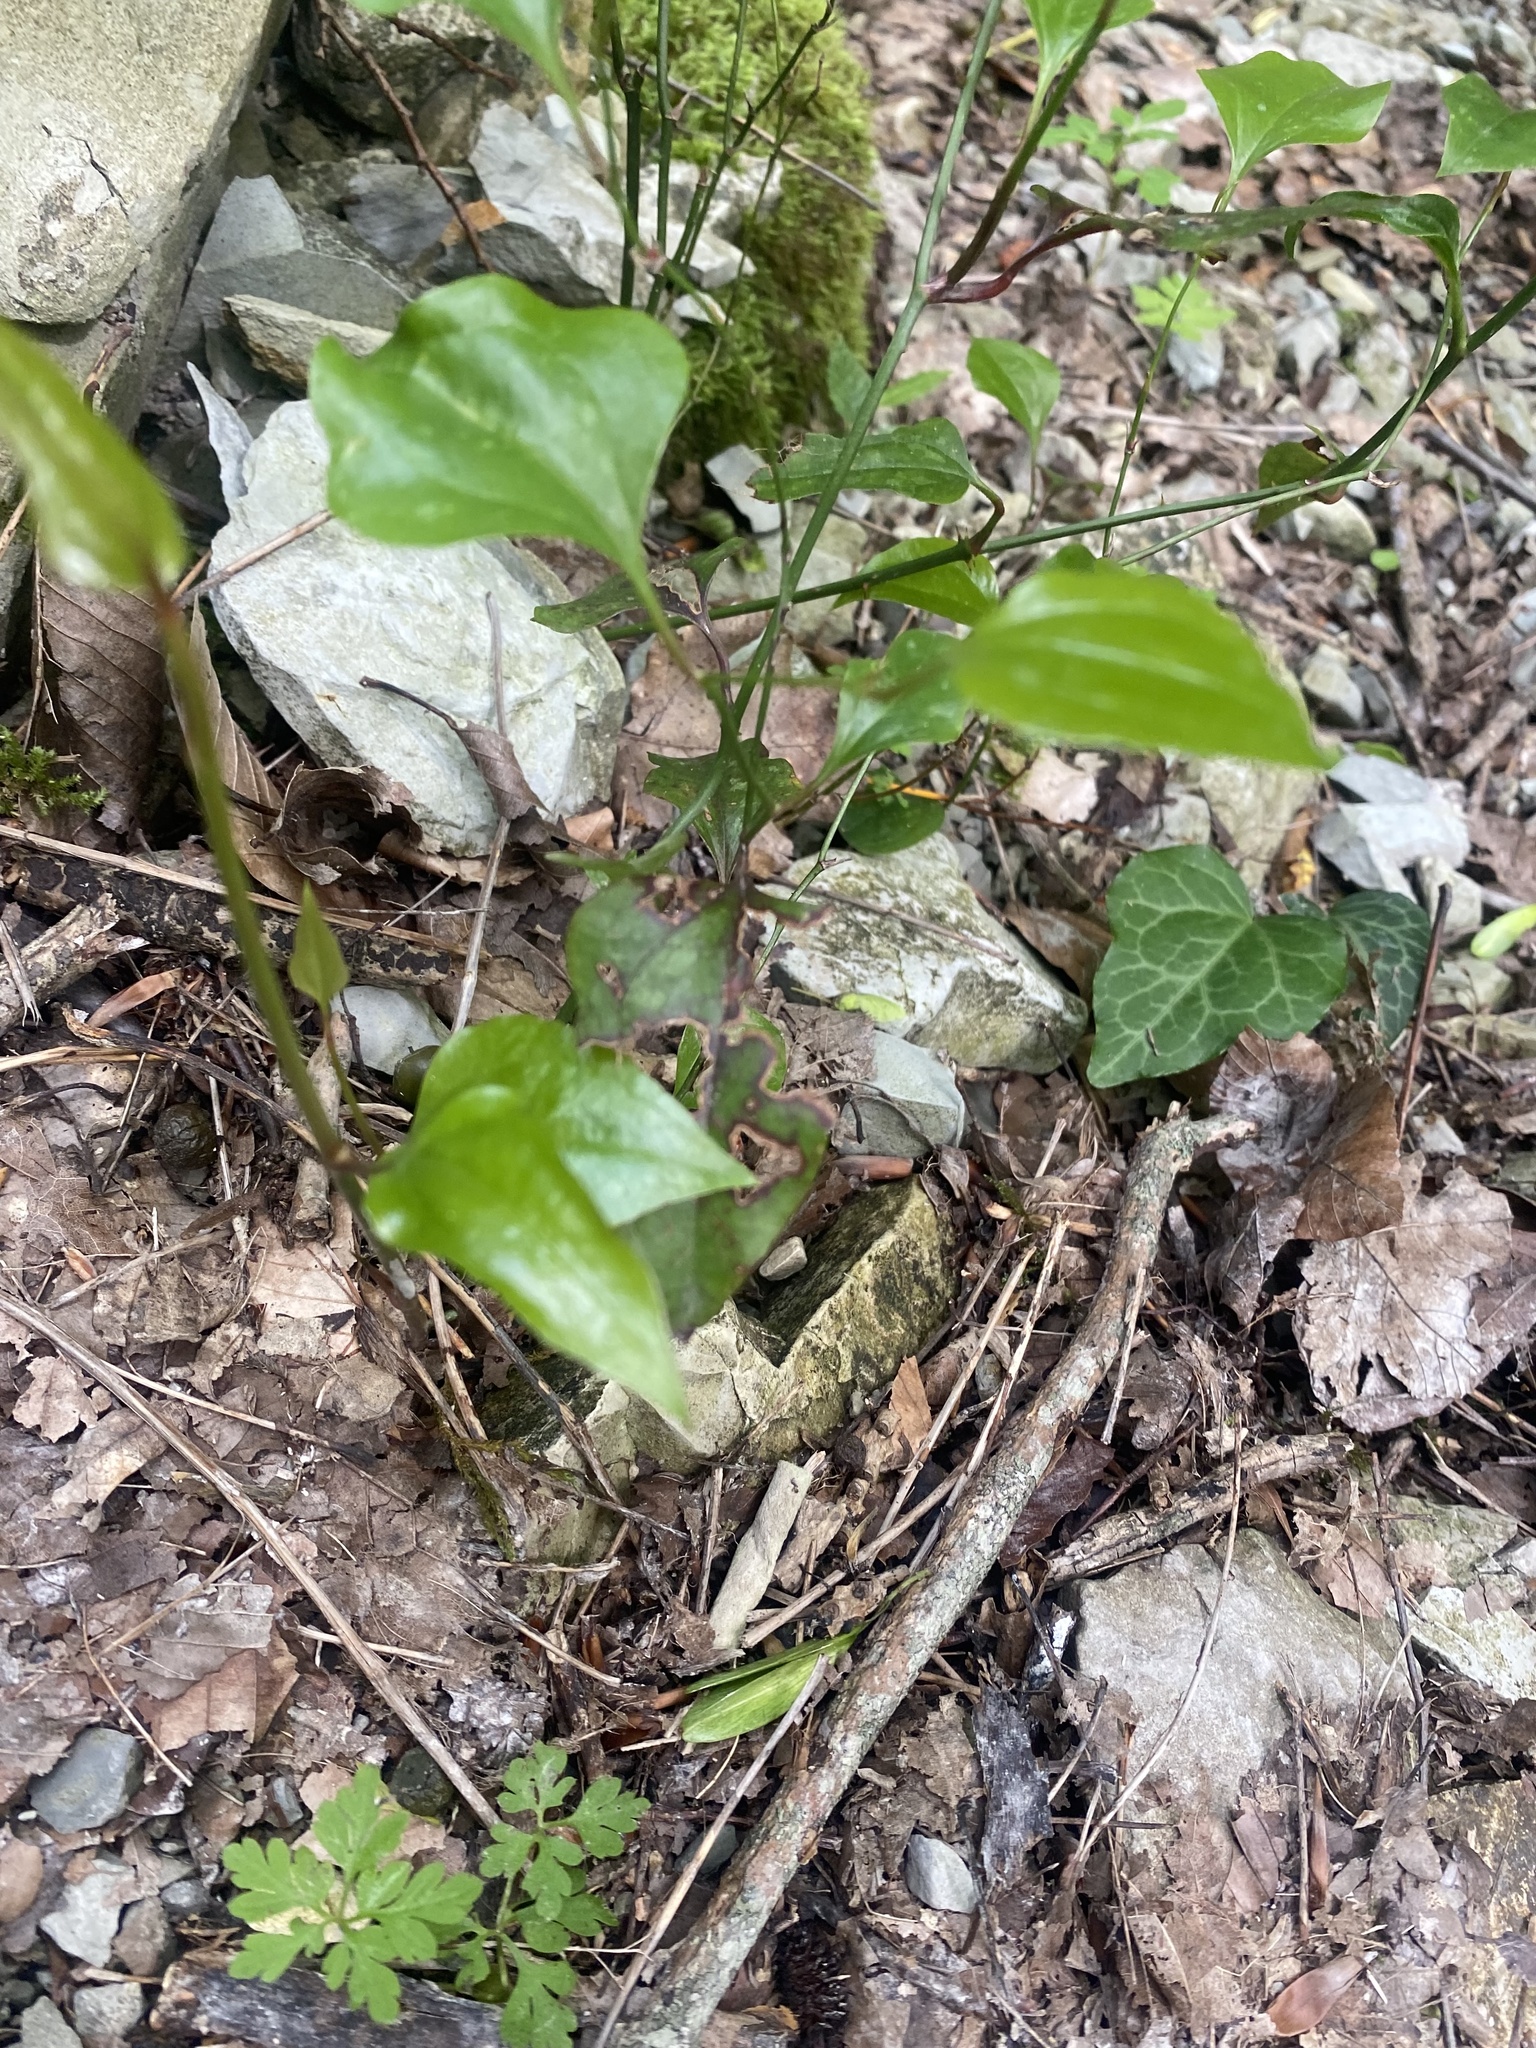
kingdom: Plantae
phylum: Tracheophyta
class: Liliopsida
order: Liliales
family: Smilacaceae
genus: Smilax
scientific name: Smilax excelsa
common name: Larger smilax
